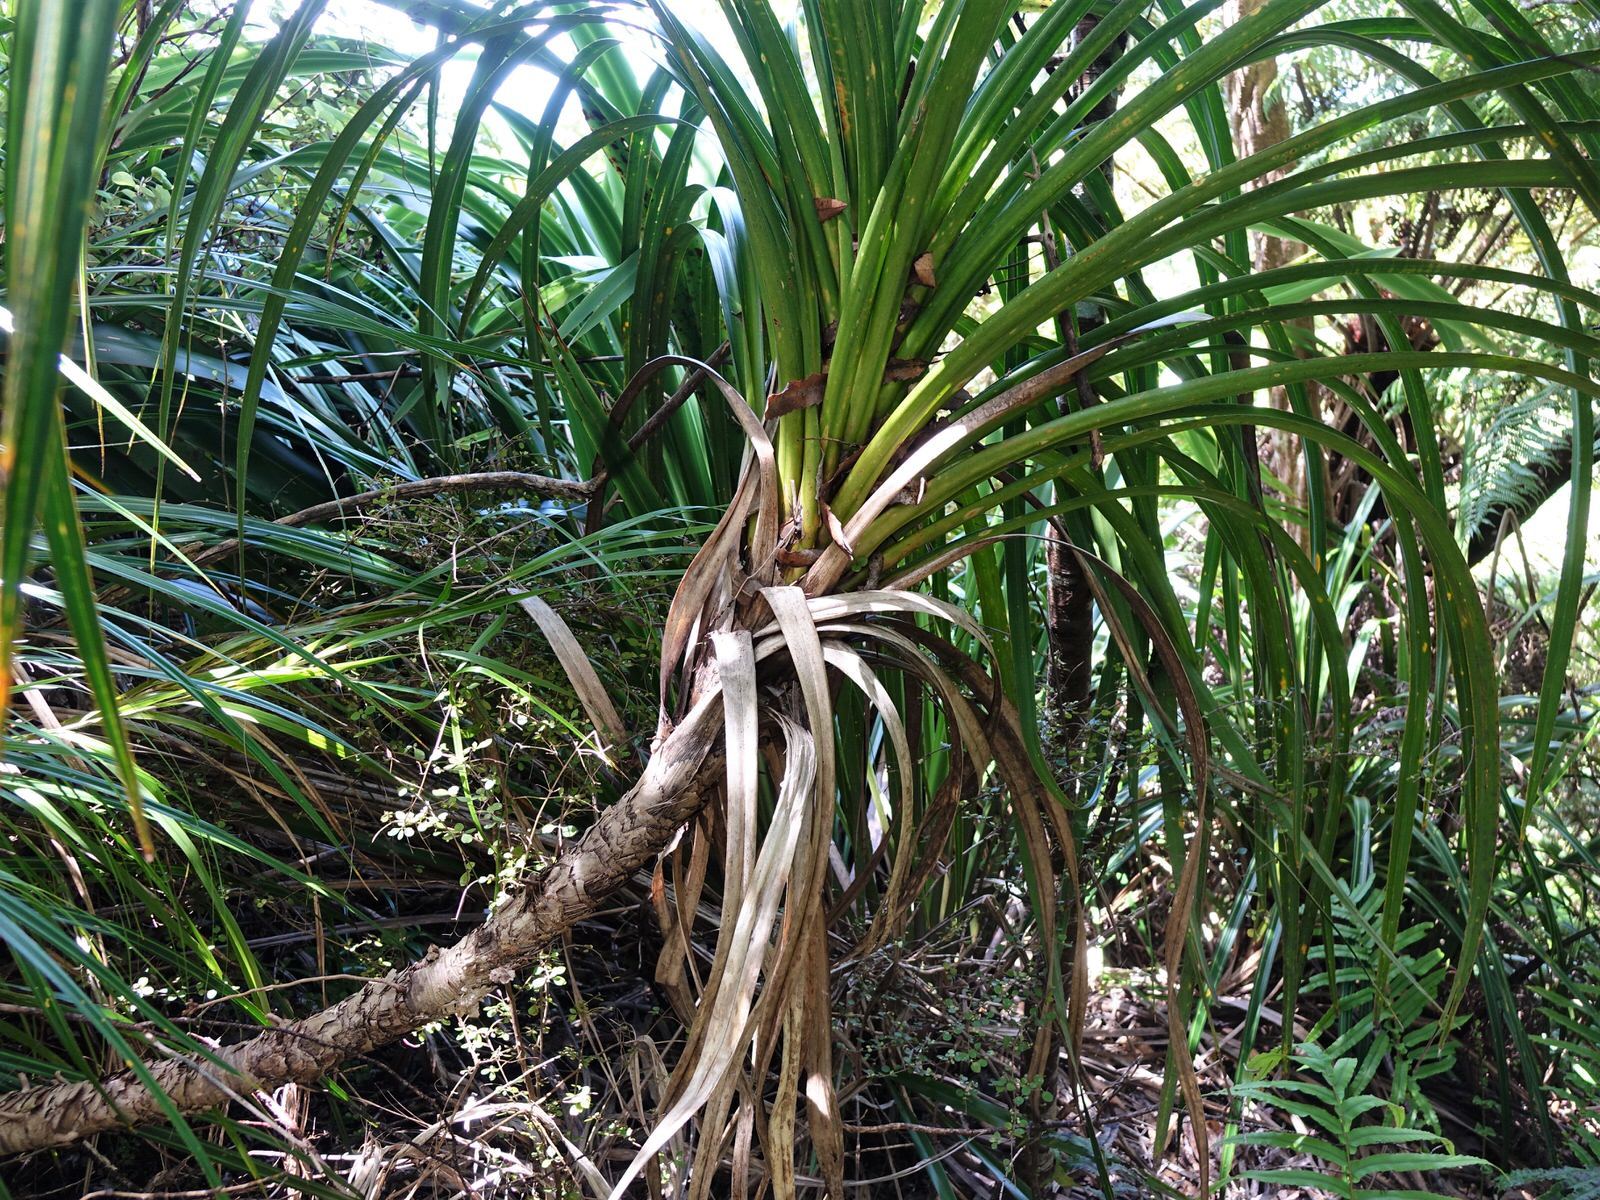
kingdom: Plantae
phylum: Tracheophyta
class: Liliopsida
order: Pandanales
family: Pandanaceae
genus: Freycinetia
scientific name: Freycinetia banksii
